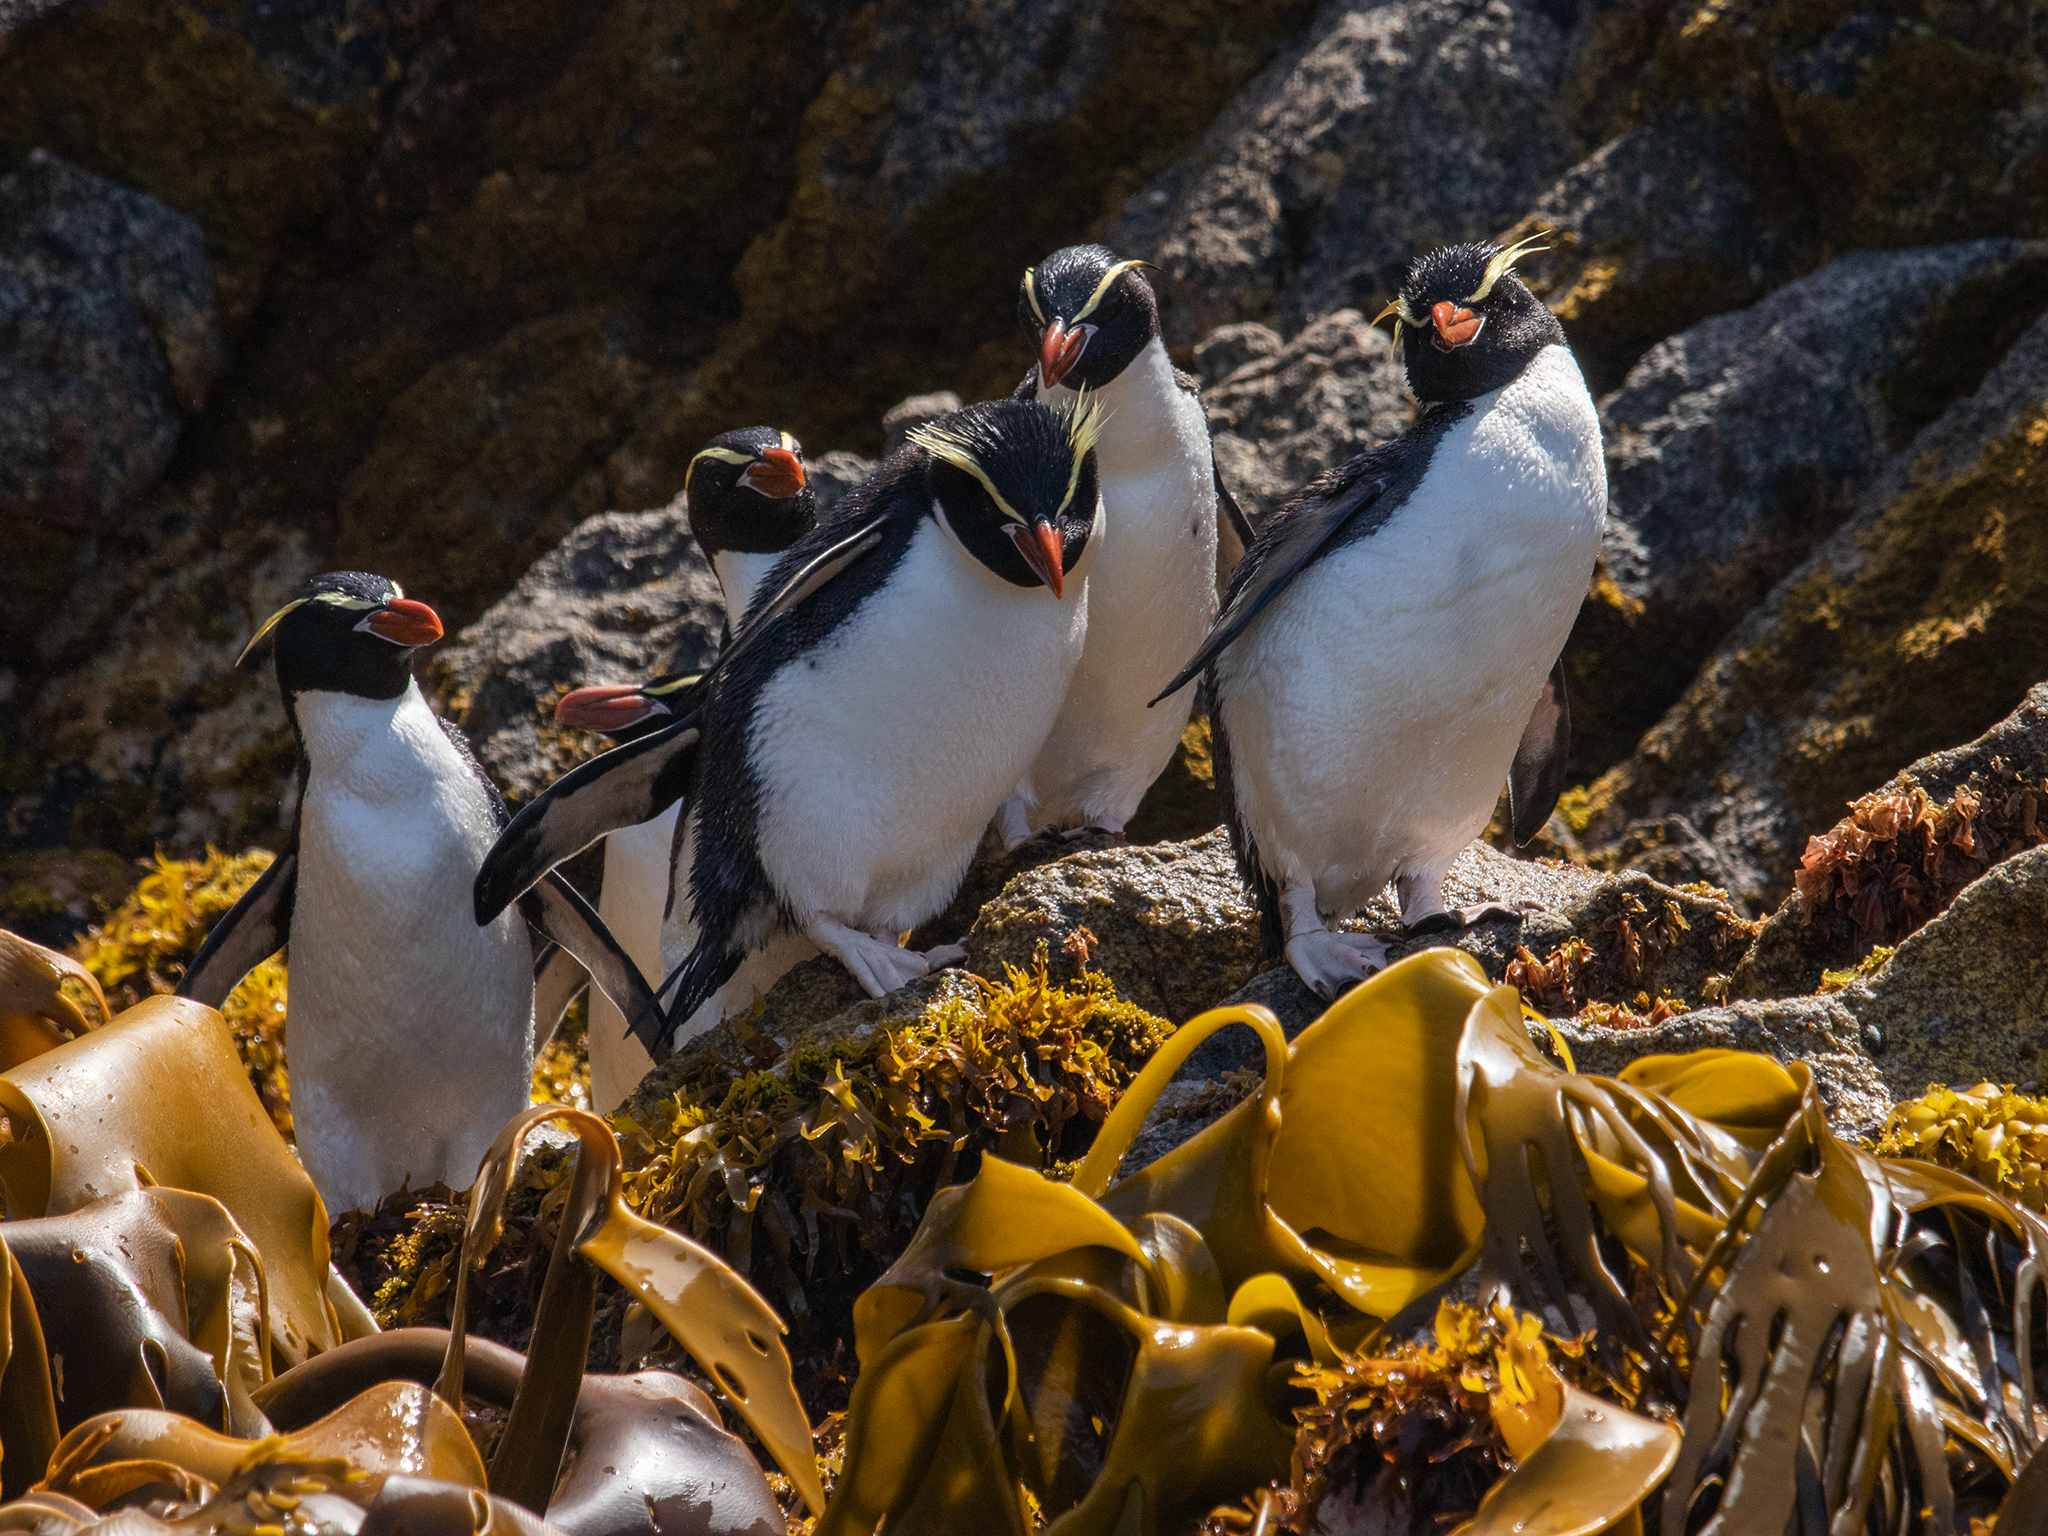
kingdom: Animalia
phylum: Chordata
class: Aves
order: Sphenisciformes
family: Spheniscidae
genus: Eudyptes
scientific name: Eudyptes robustus
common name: Snares penguin
